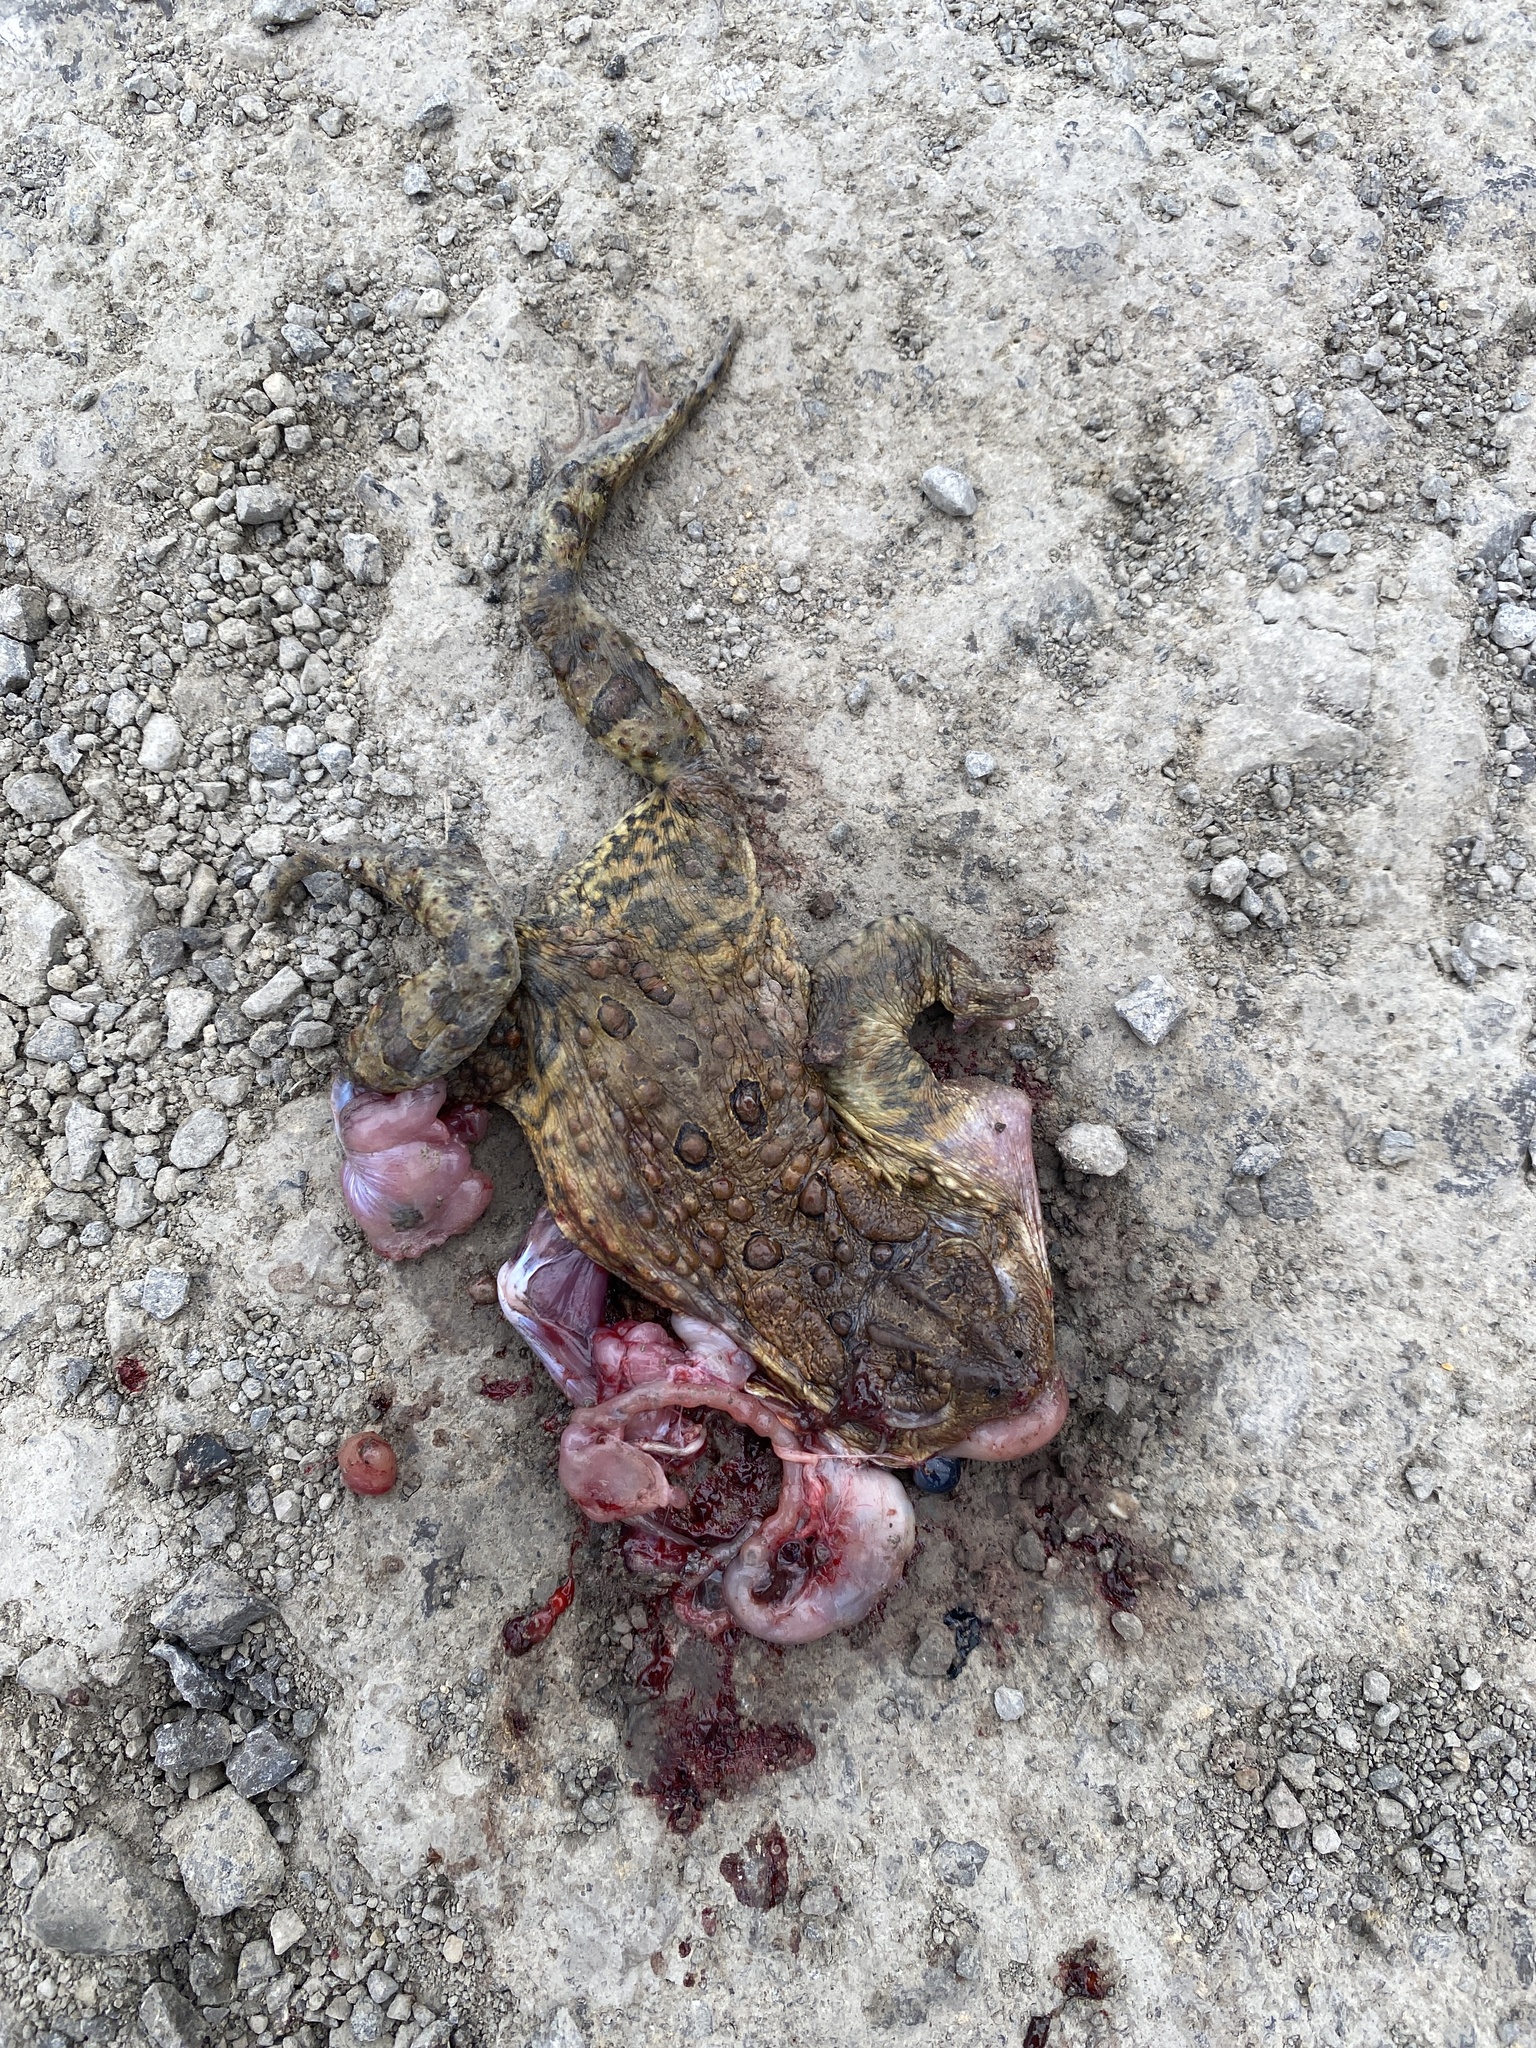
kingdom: Animalia
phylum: Chordata
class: Amphibia
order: Anura
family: Bufonidae
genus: Anaxyrus
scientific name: Anaxyrus americanus
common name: American toad
